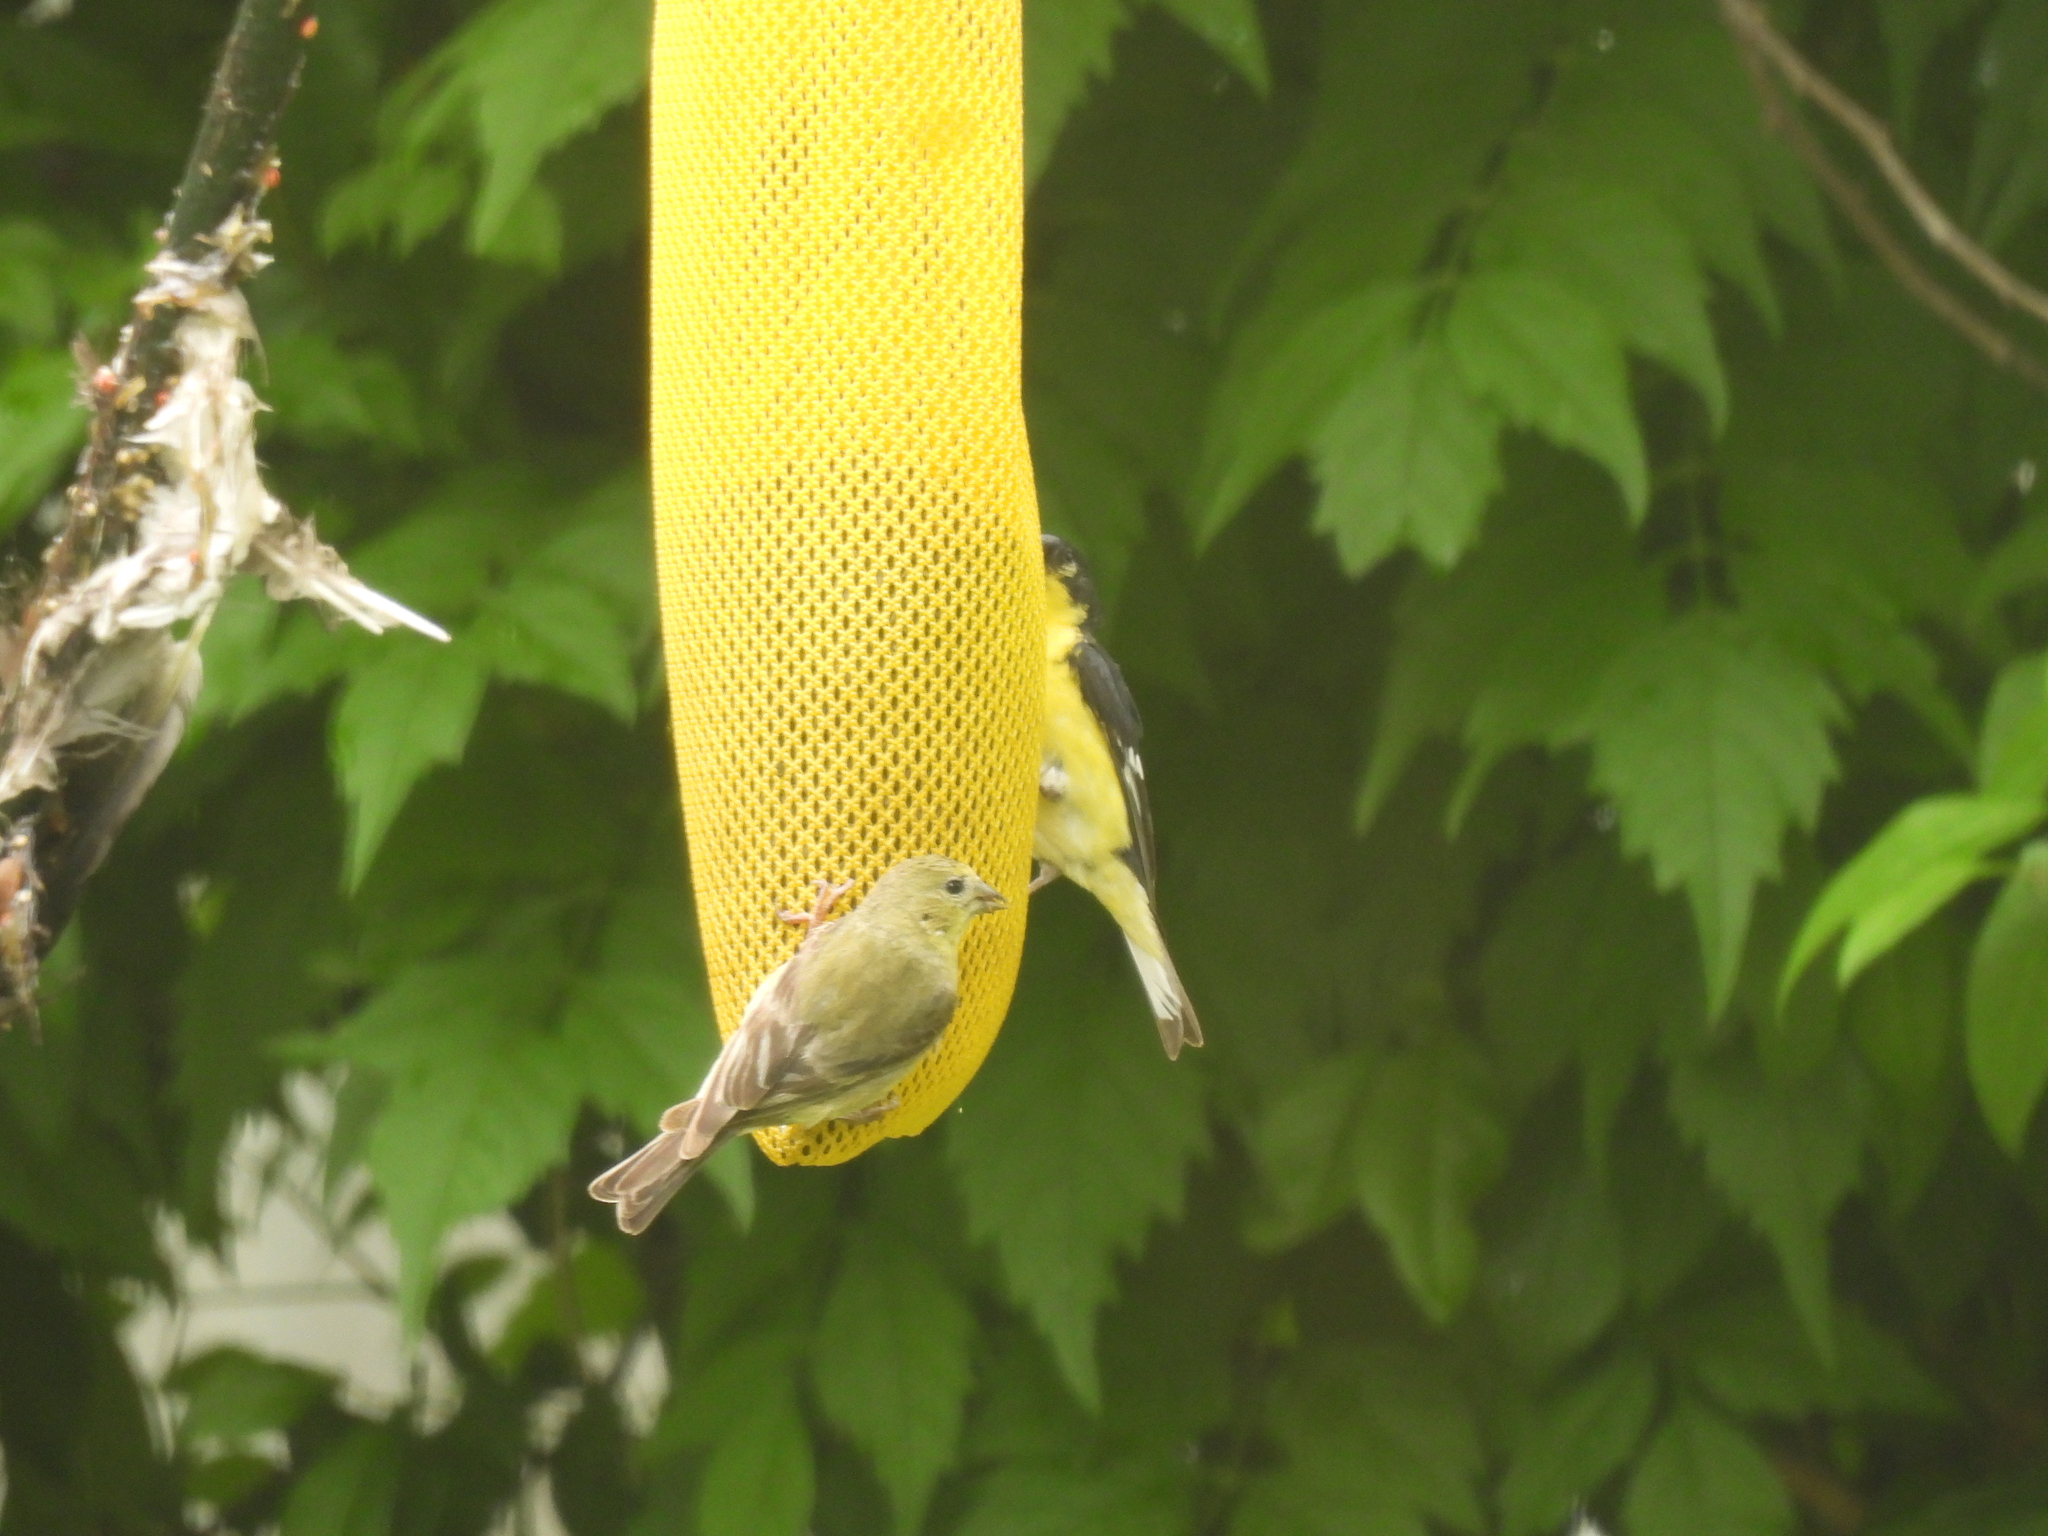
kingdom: Animalia
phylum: Chordata
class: Aves
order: Passeriformes
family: Fringillidae
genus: Spinus
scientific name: Spinus psaltria
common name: Lesser goldfinch
